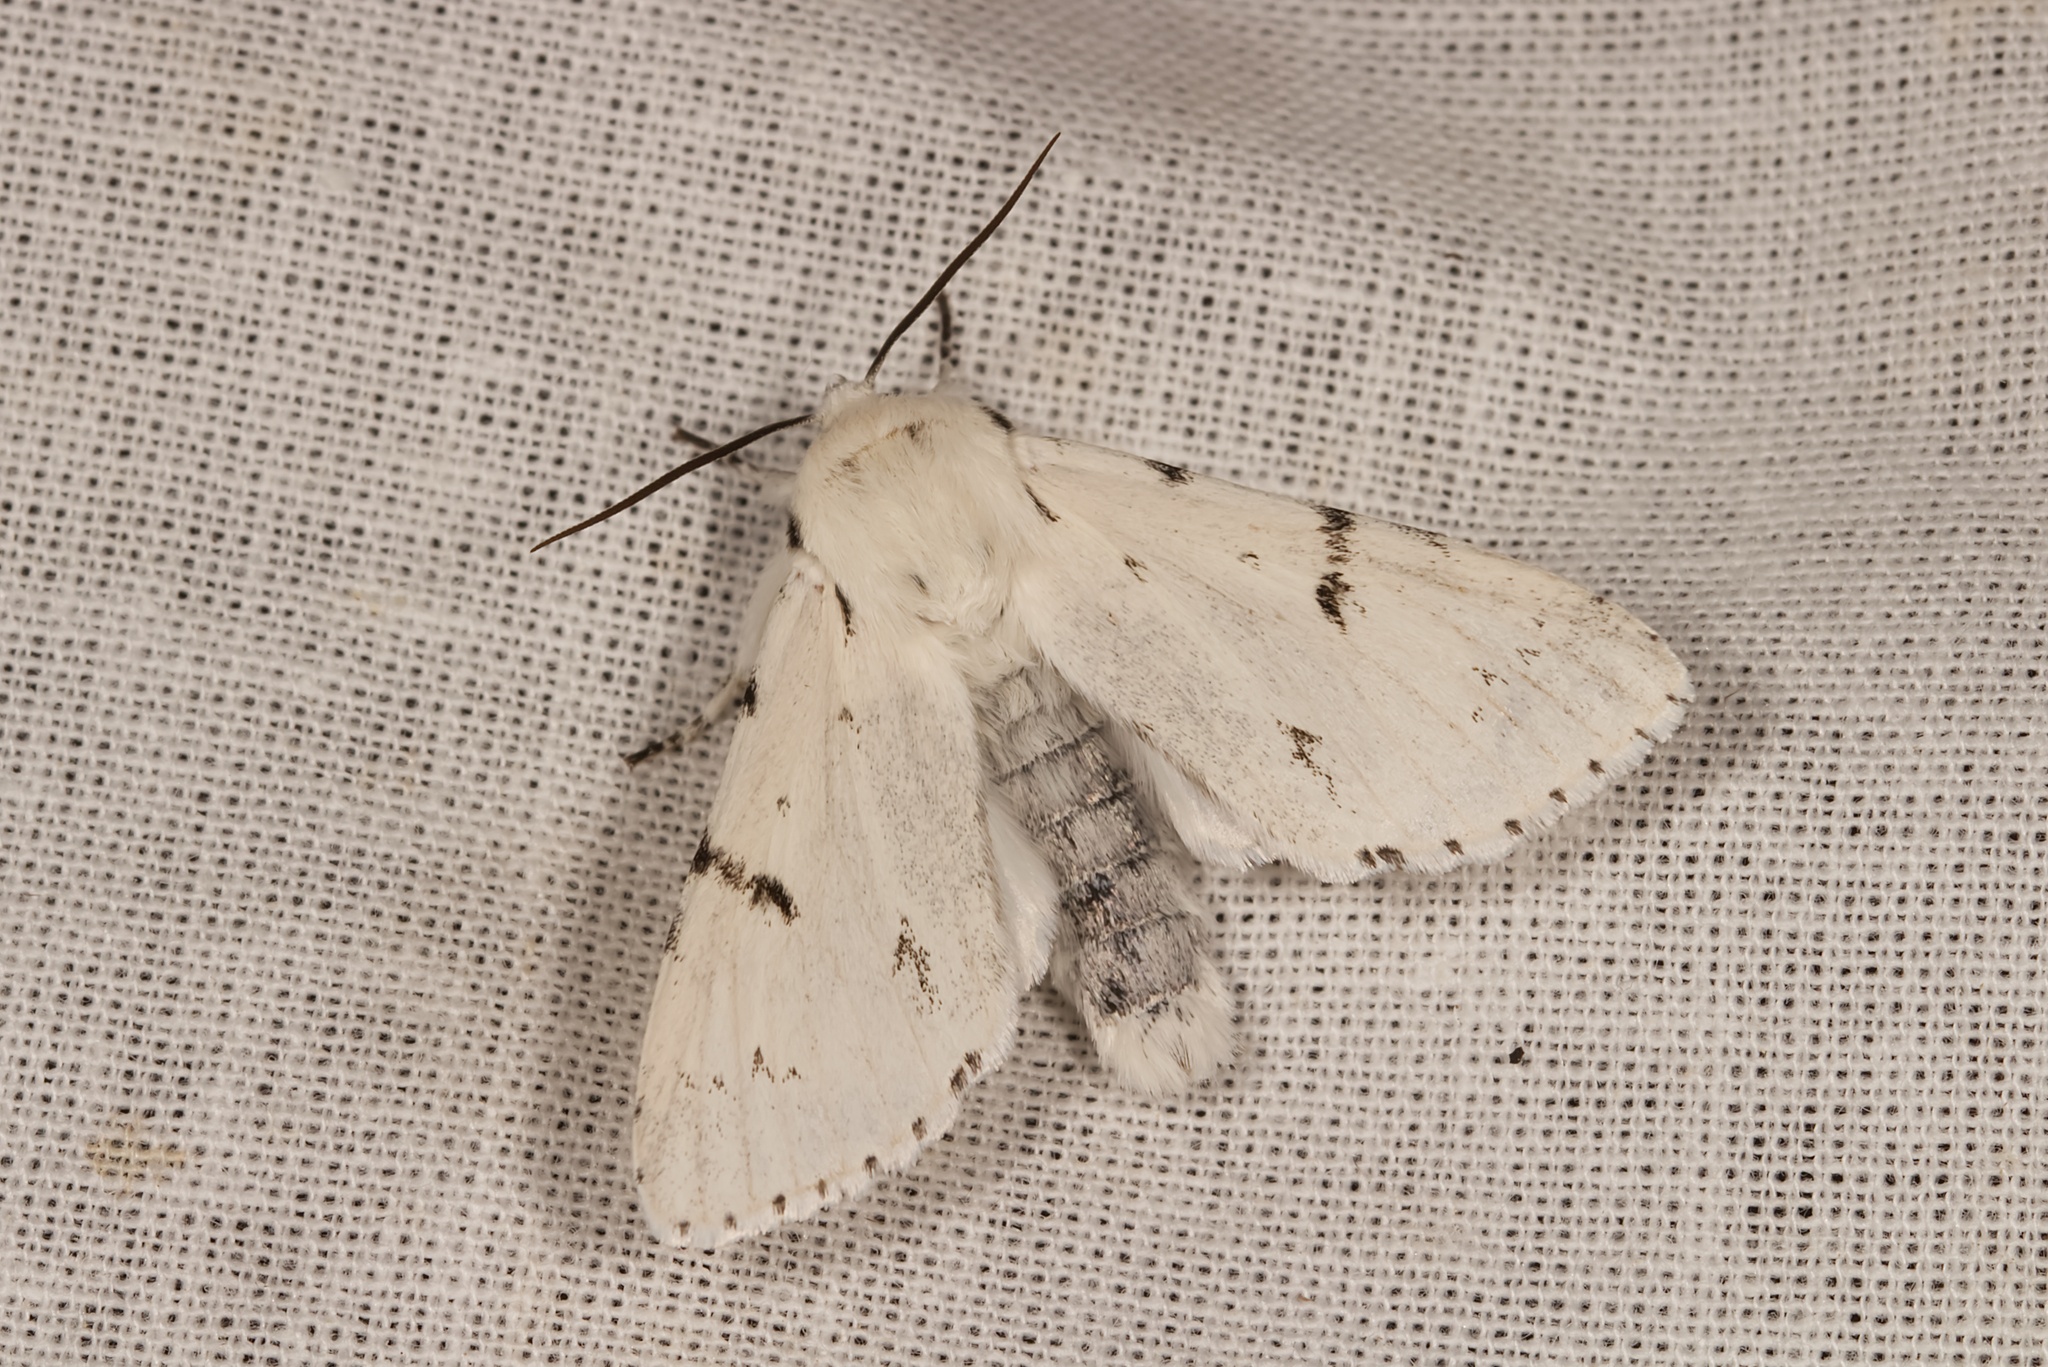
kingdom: Animalia
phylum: Arthropoda
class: Insecta
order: Lepidoptera
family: Noctuidae
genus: Acronicta
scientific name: Acronicta leporina
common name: Miller
